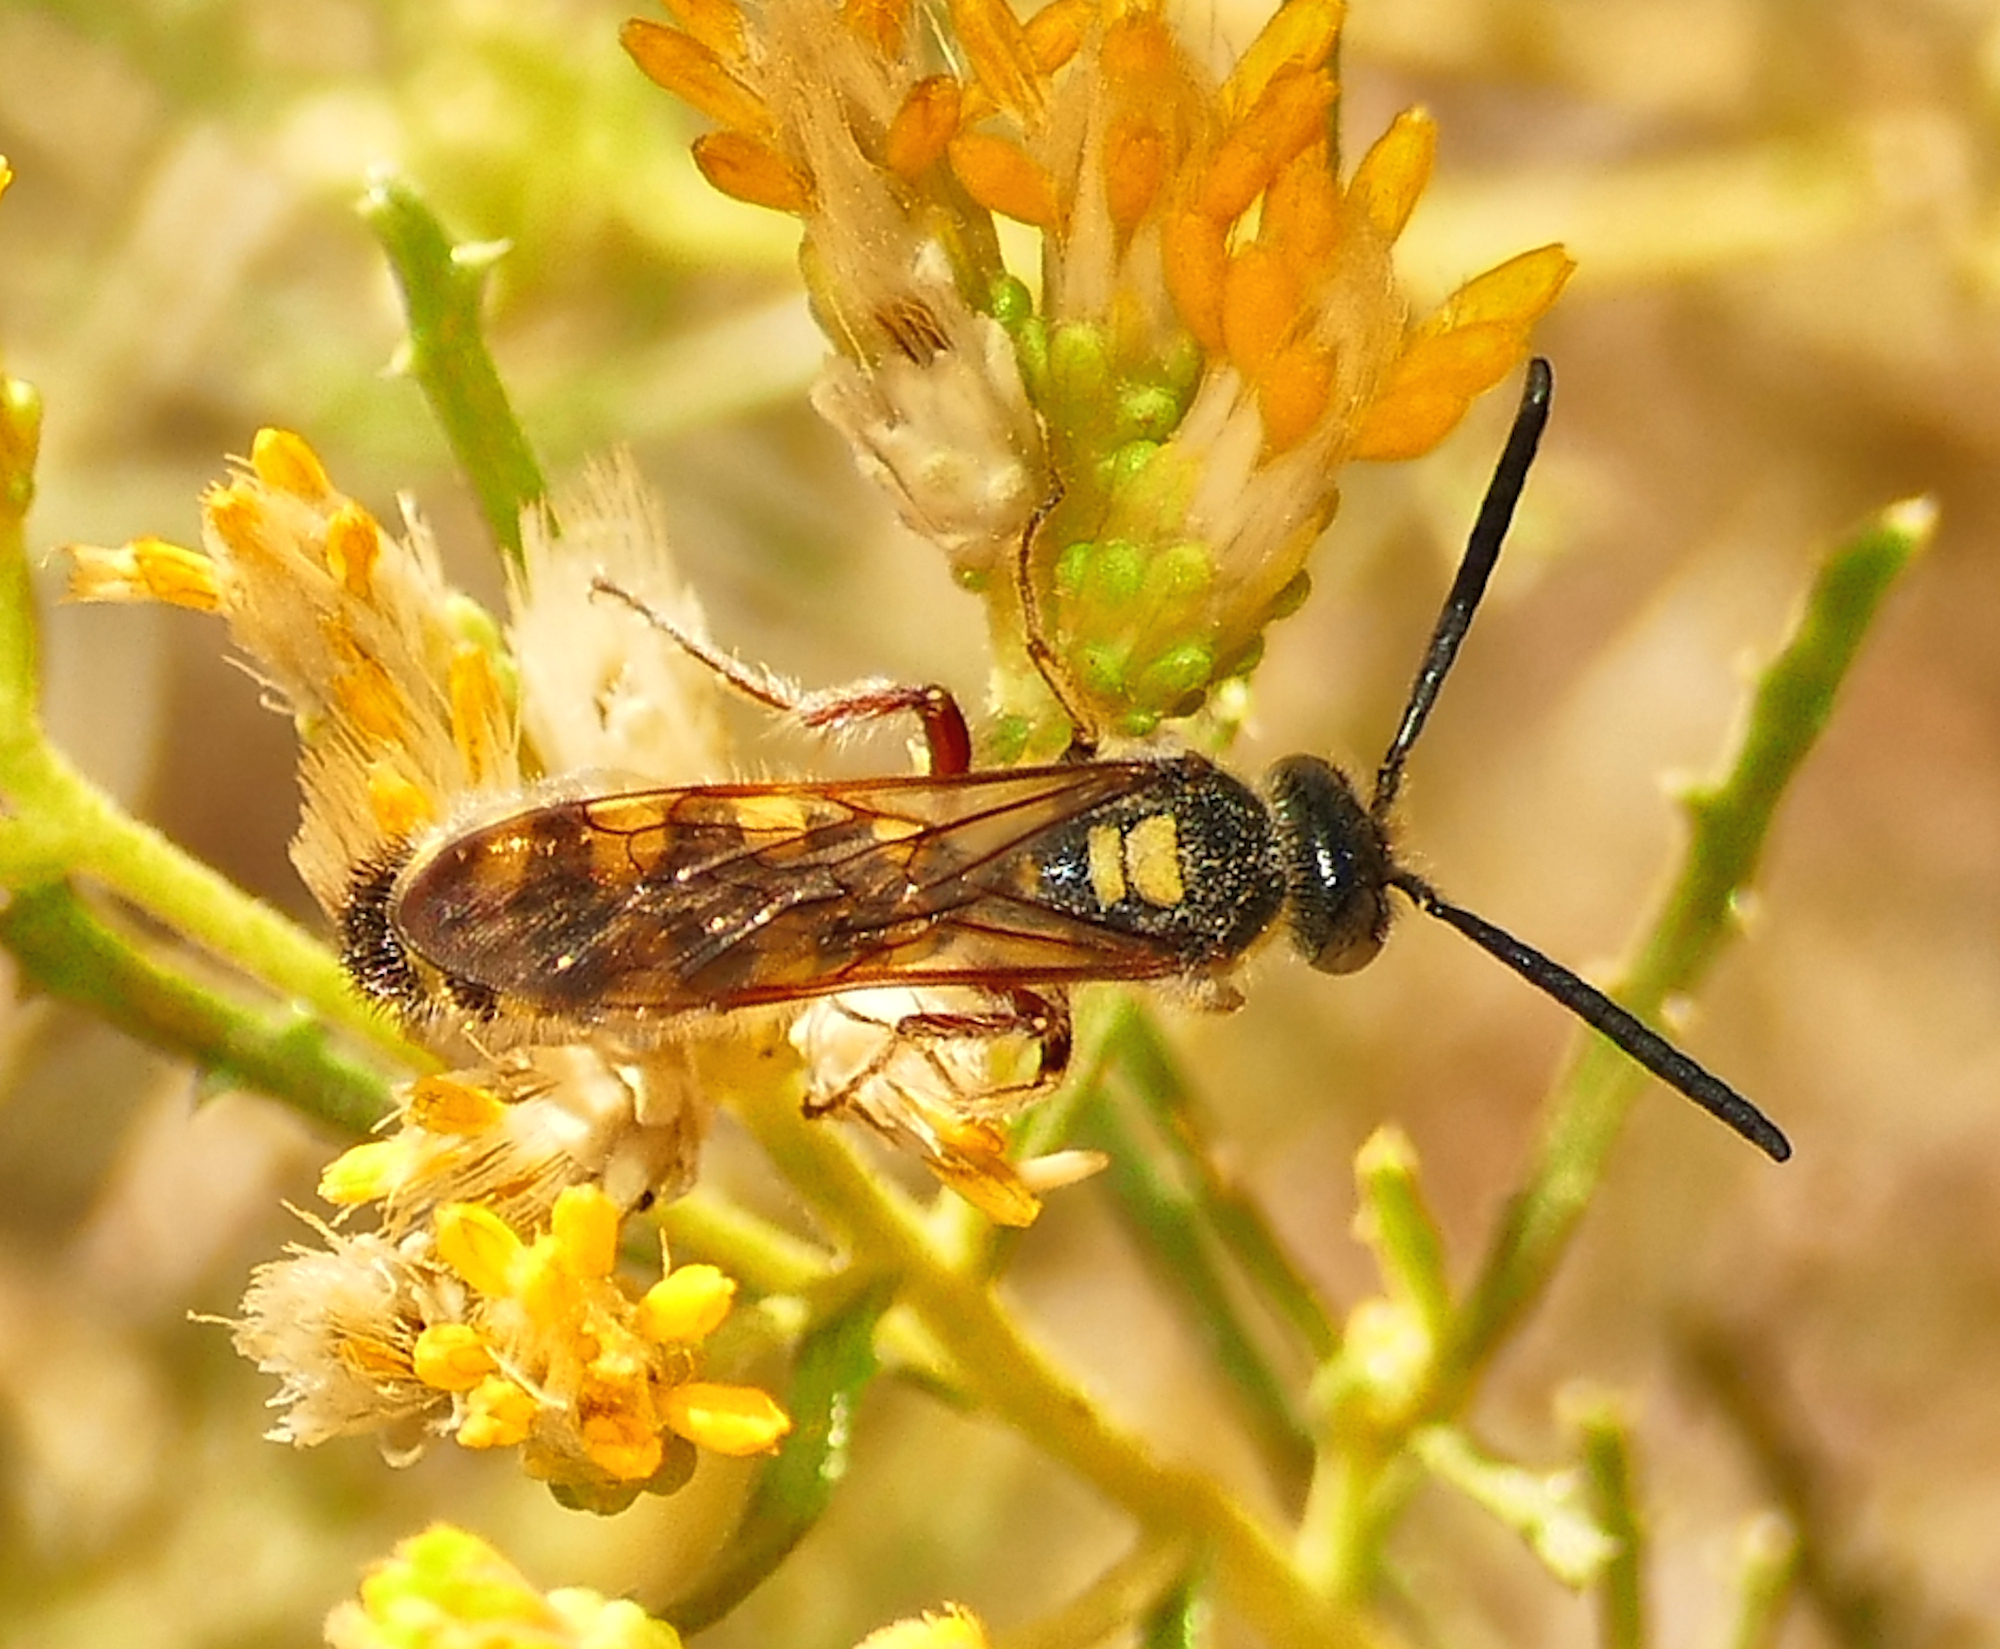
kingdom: Animalia
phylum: Arthropoda
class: Insecta
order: Hymenoptera
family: Scoliidae
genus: Colpa
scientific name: Colpa octomaculata
